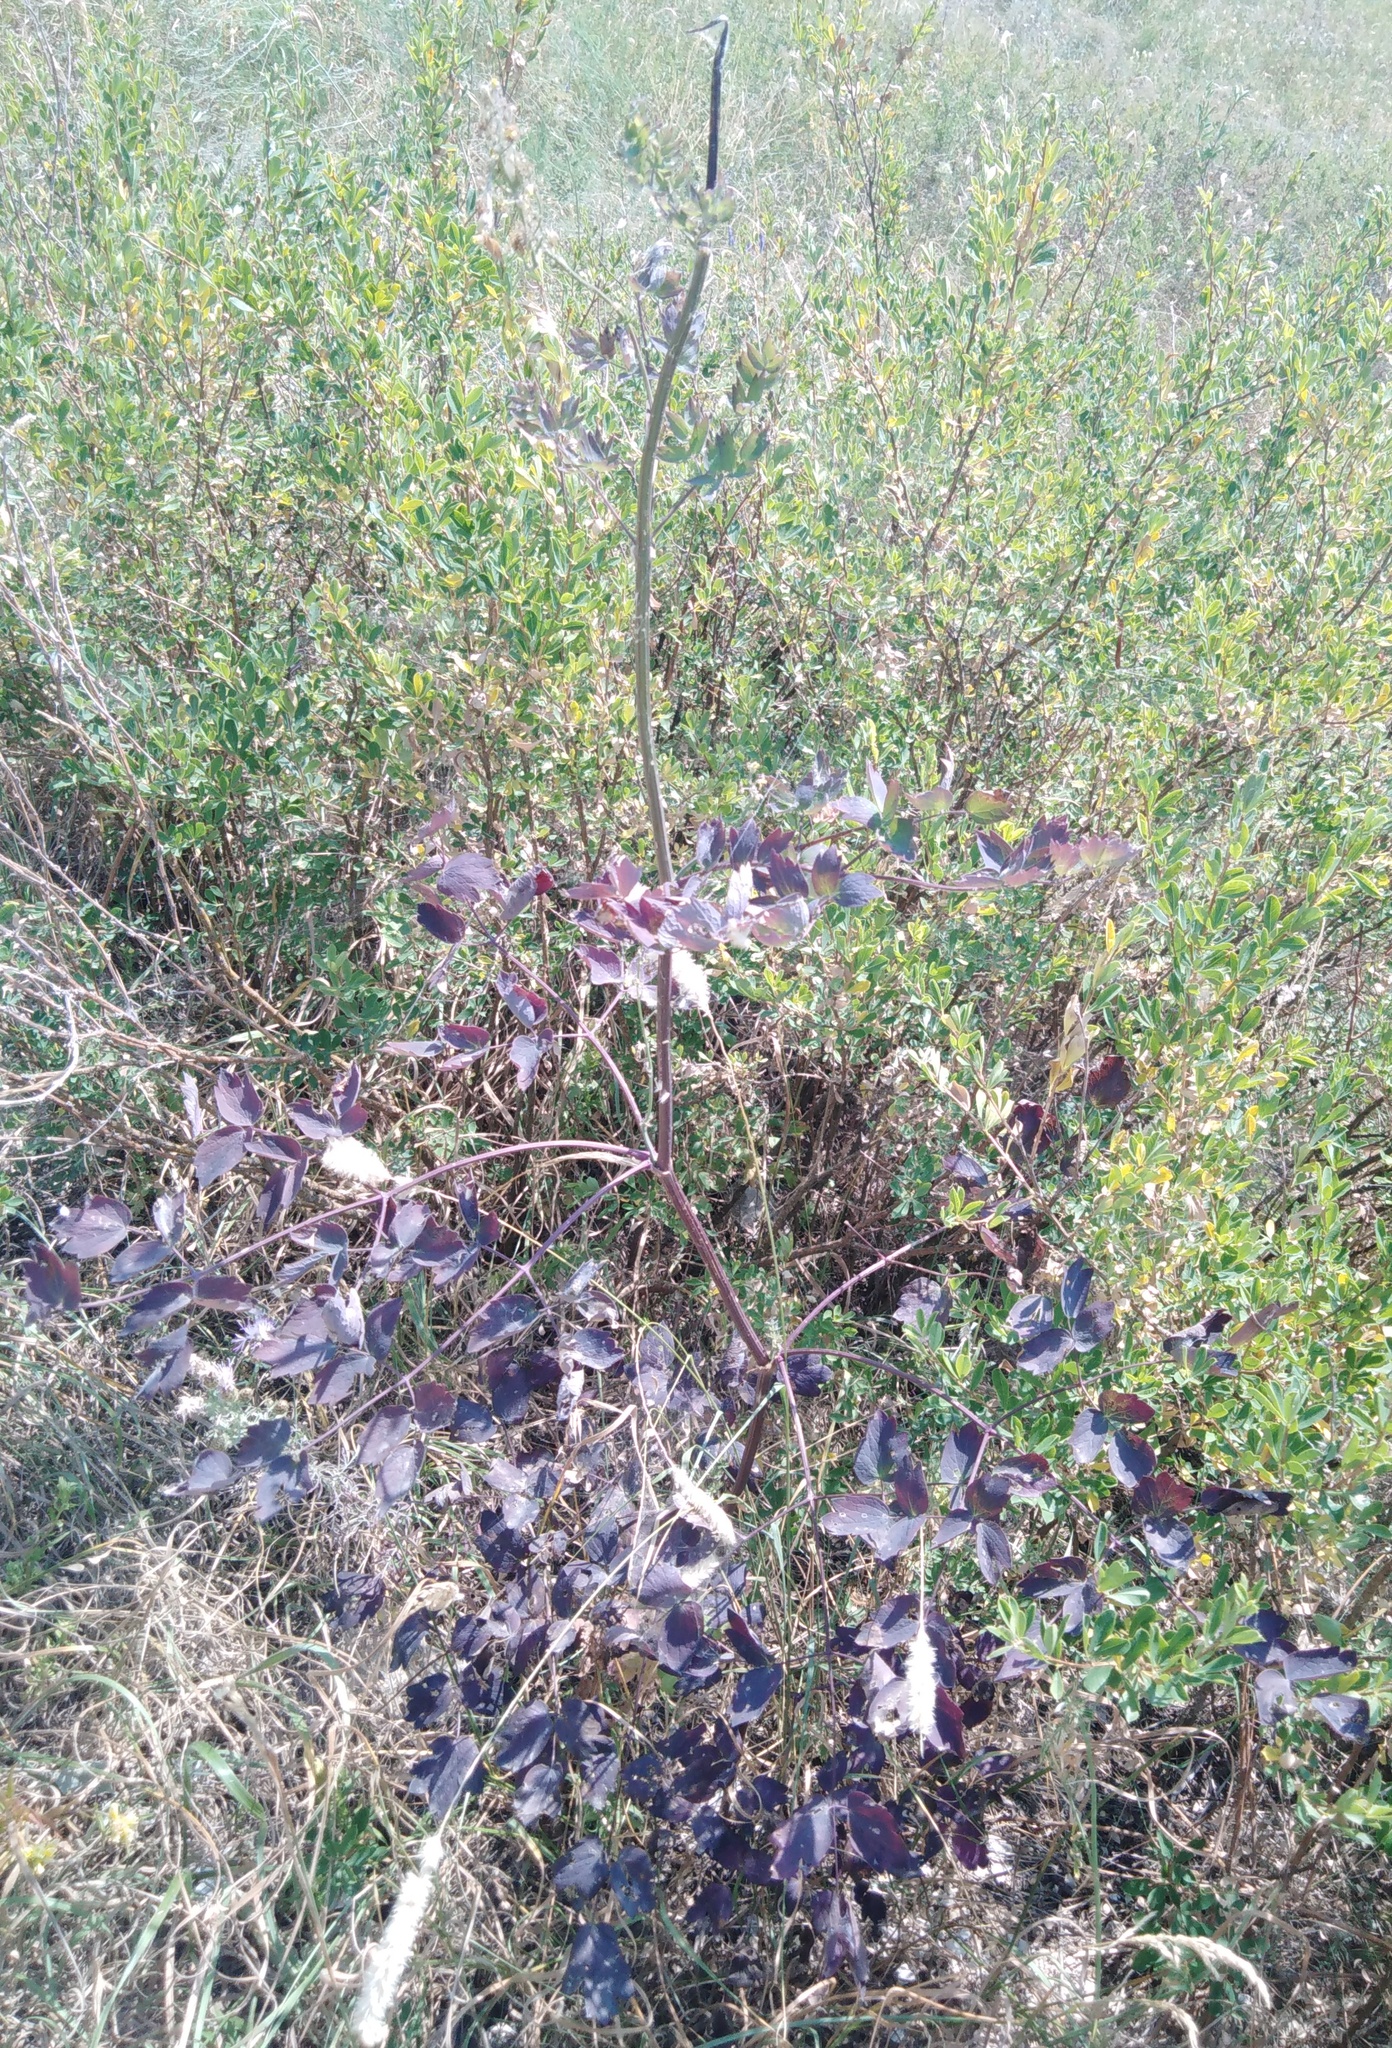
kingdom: Plantae
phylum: Tracheophyta
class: Magnoliopsida
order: Ranunculales
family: Ranunculaceae
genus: Thalictrum
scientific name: Thalictrum minus
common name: Lesser meadow-rue
